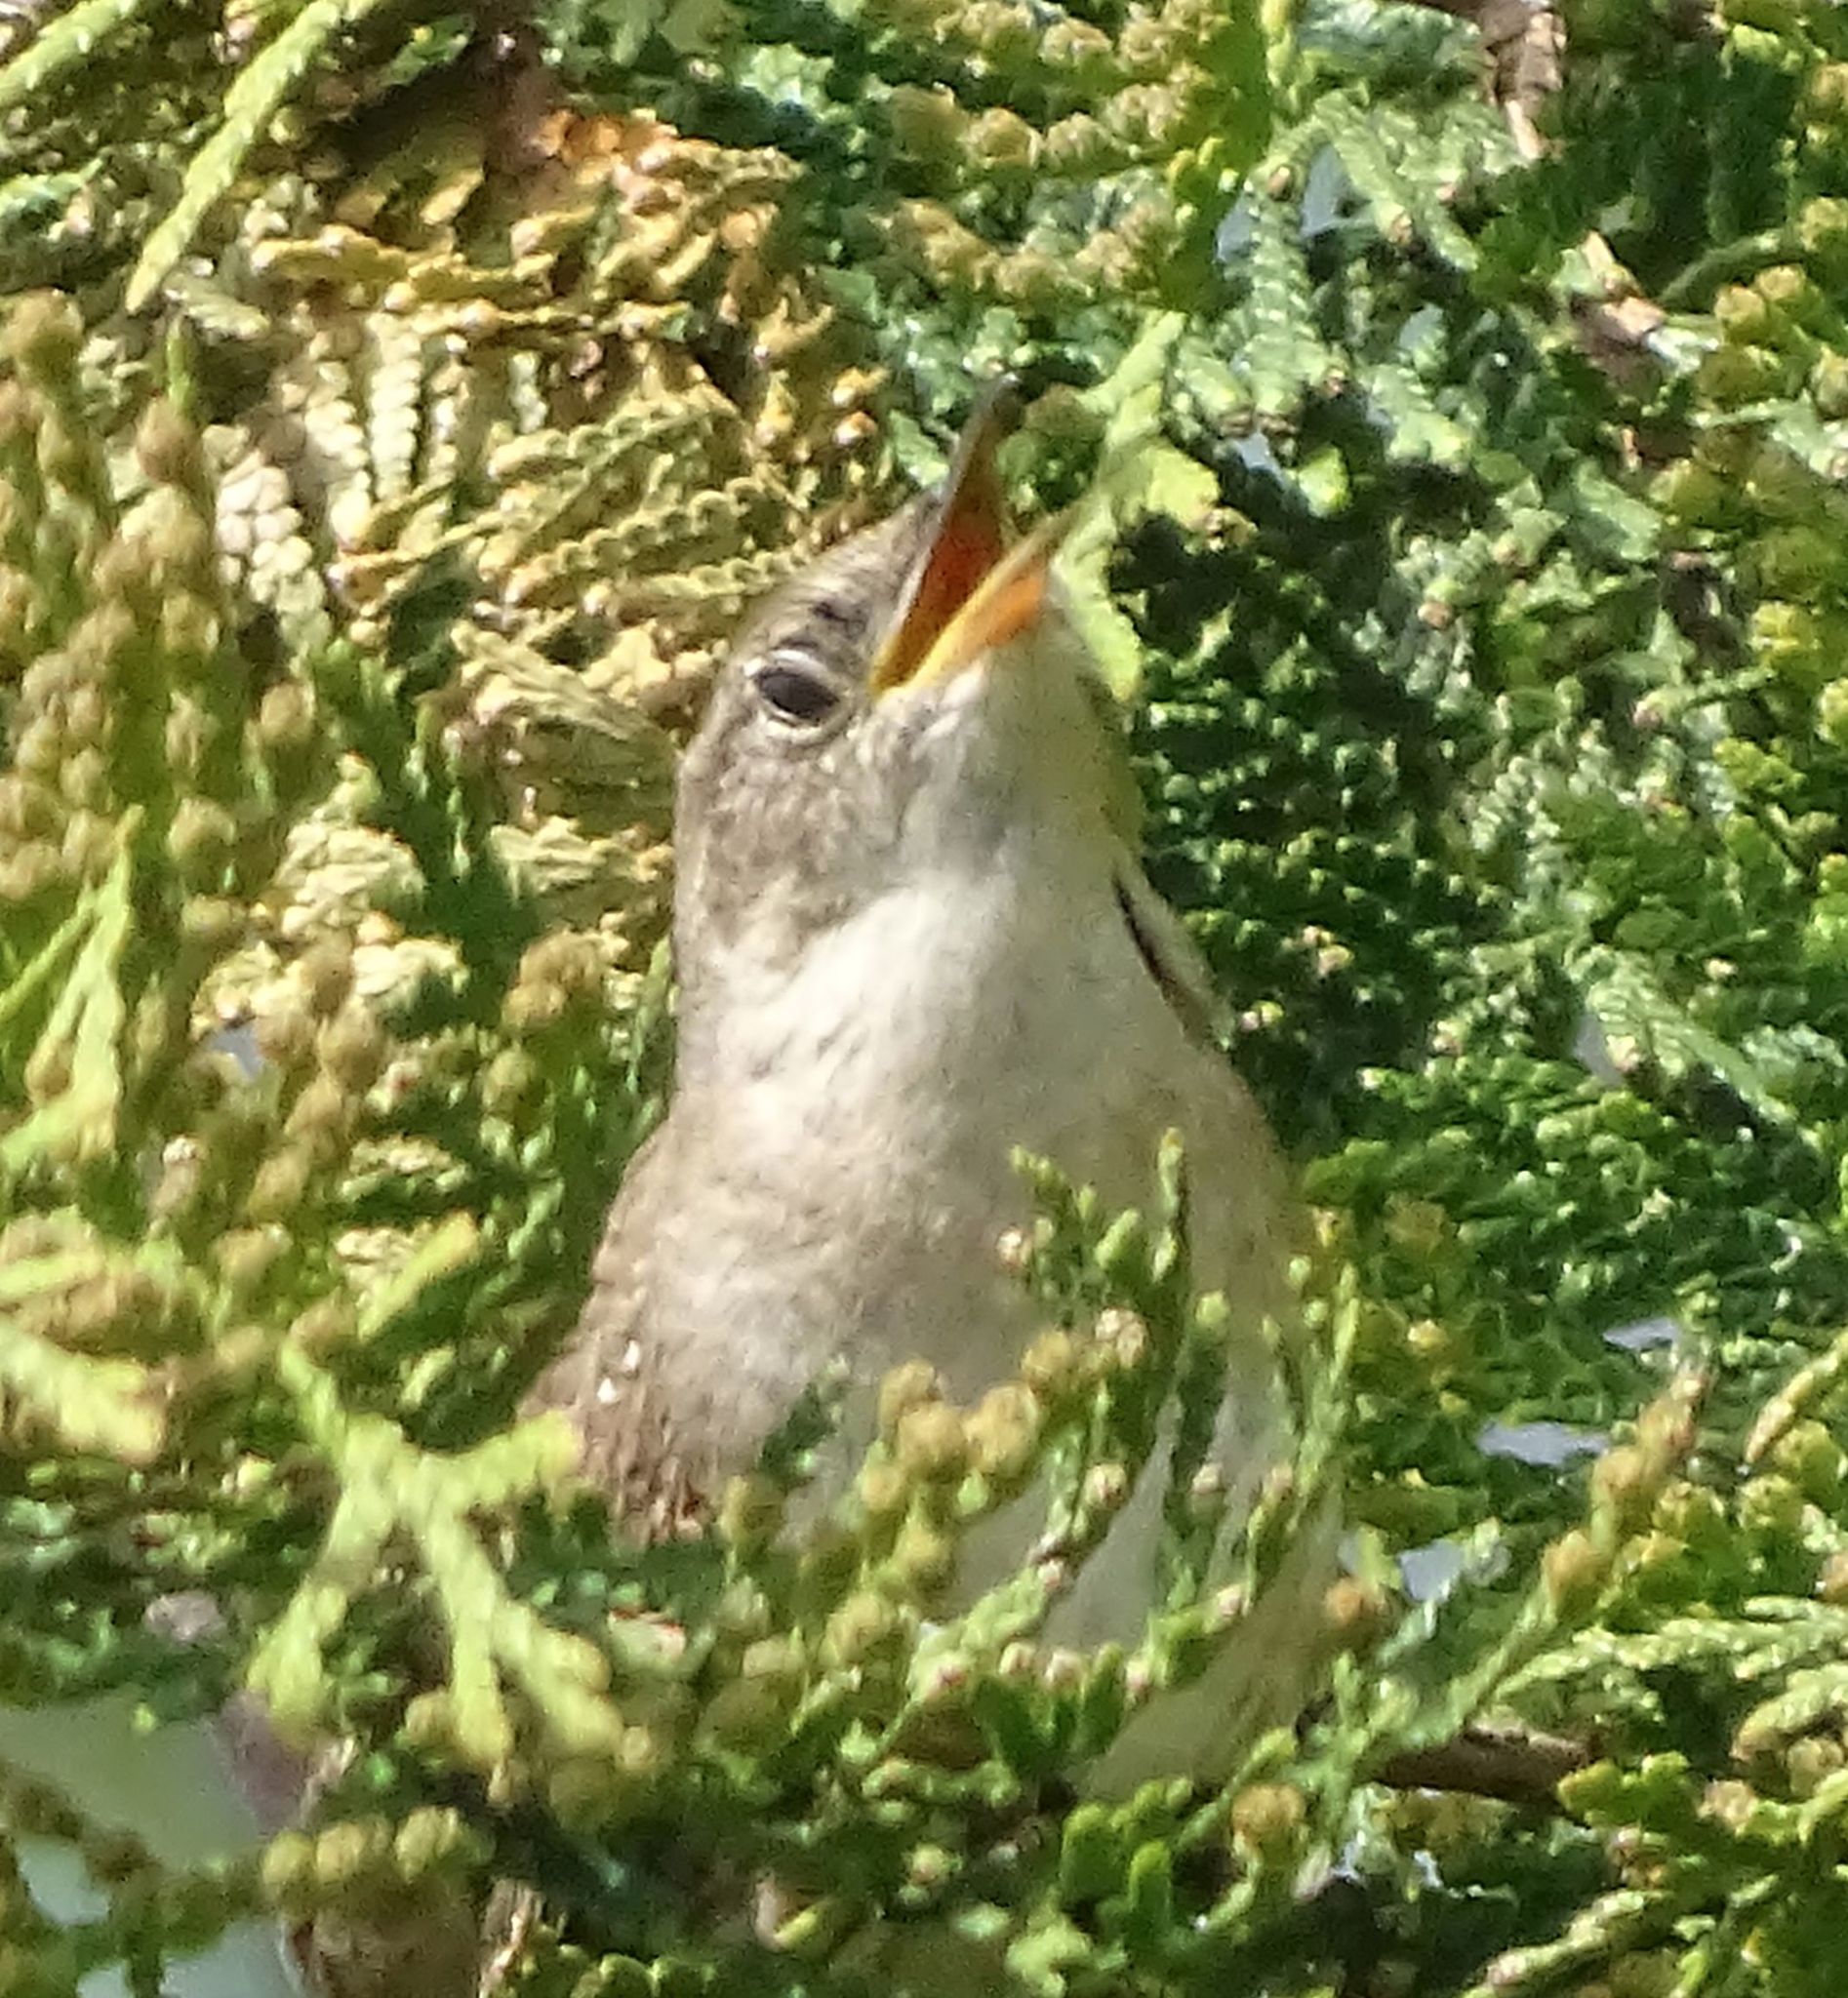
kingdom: Animalia
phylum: Chordata
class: Aves
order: Passeriformes
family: Troglodytidae
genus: Troglodytes
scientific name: Troglodytes aedon
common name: House wren
